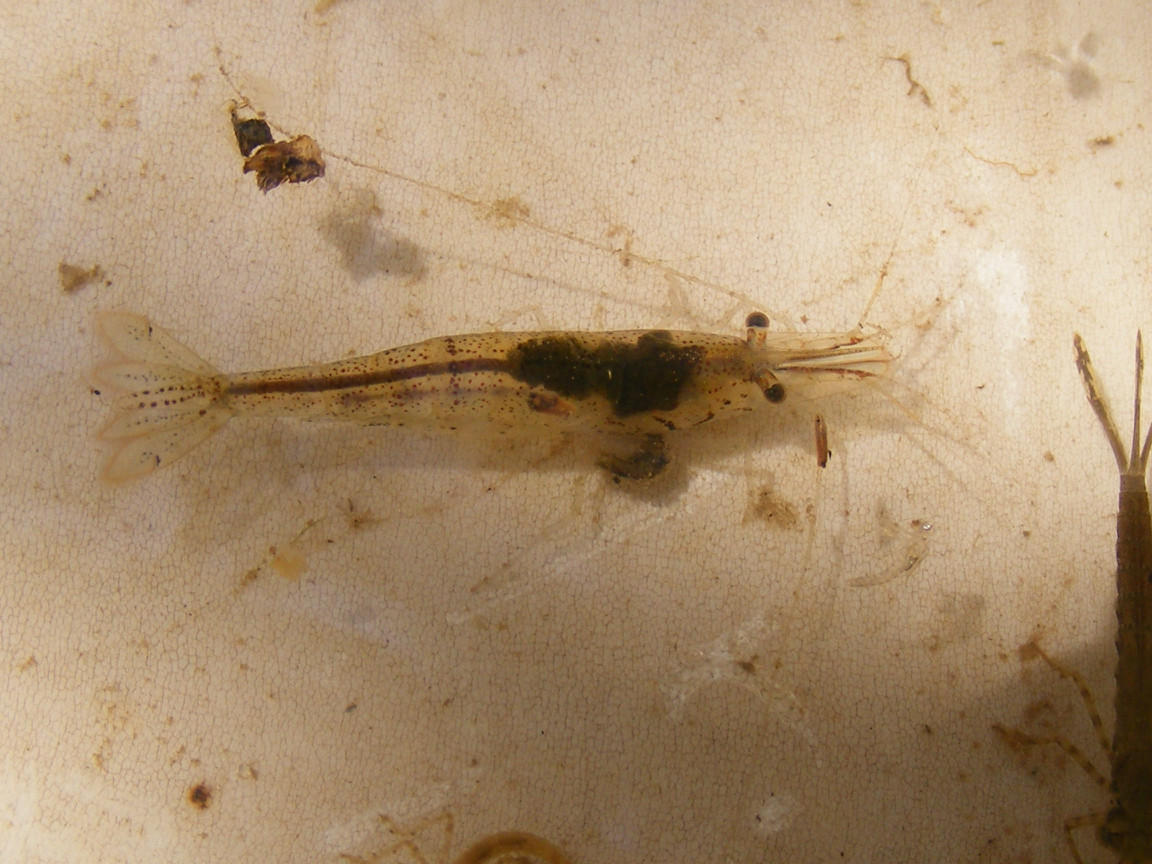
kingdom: Animalia
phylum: Arthropoda
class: Malacostraca
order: Decapoda
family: Atyidae
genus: Caridina
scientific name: Caridina africana
